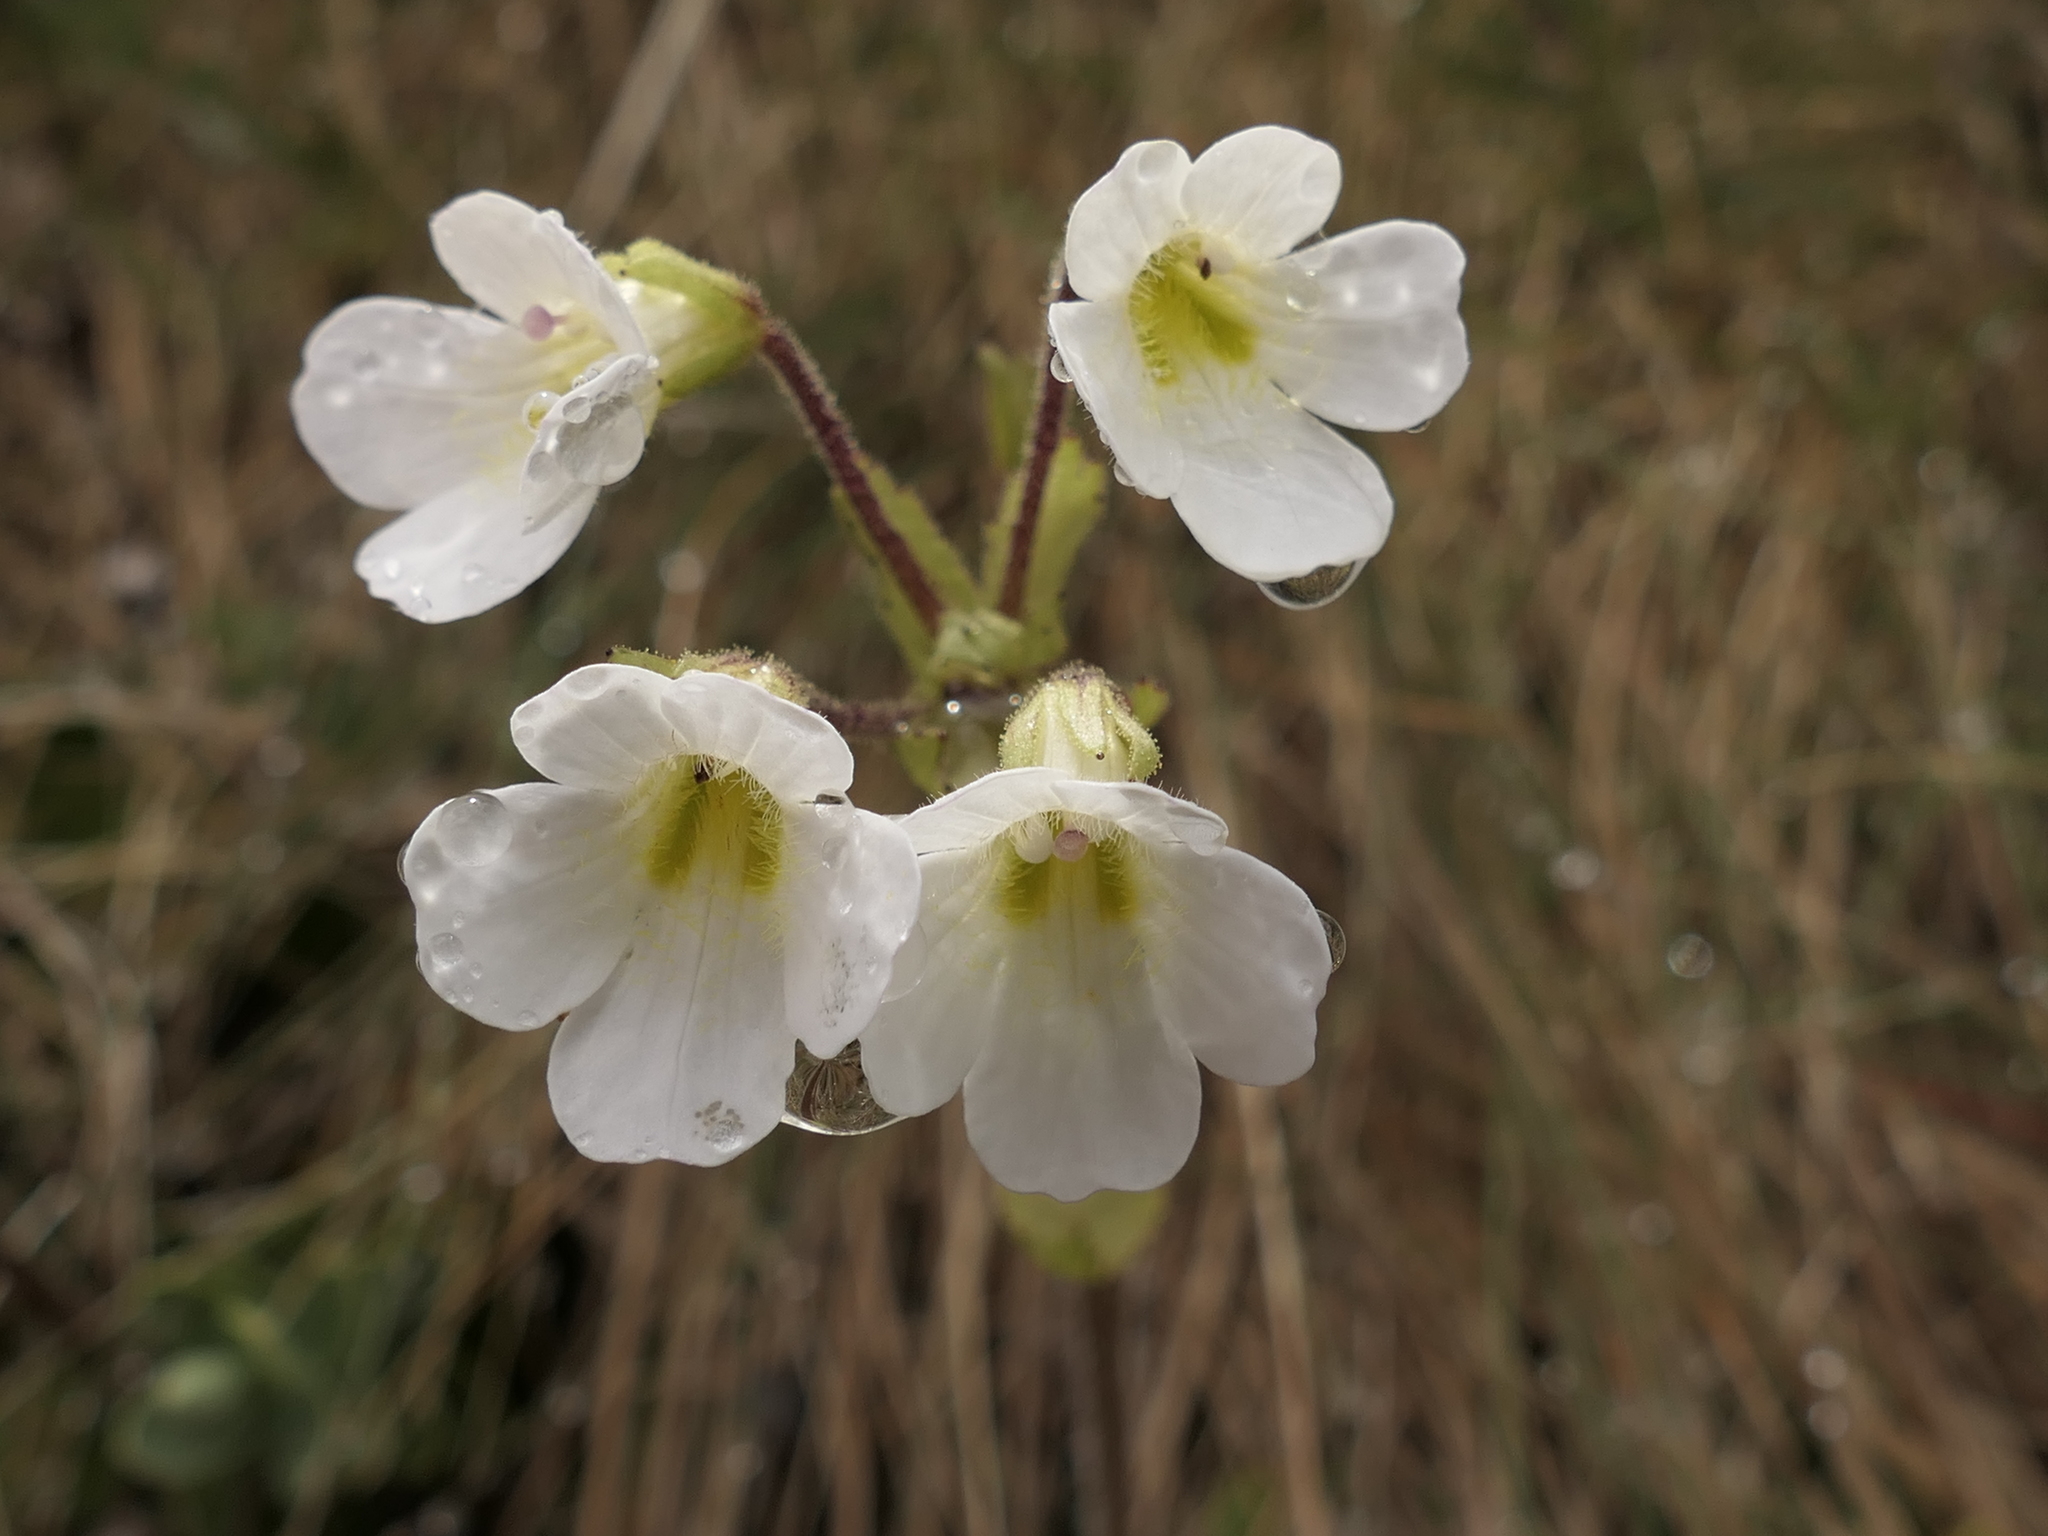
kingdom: Plantae
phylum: Tracheophyta
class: Magnoliopsida
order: Lamiales
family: Plantaginaceae
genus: Ourisia
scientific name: Ourisia macrophylla
